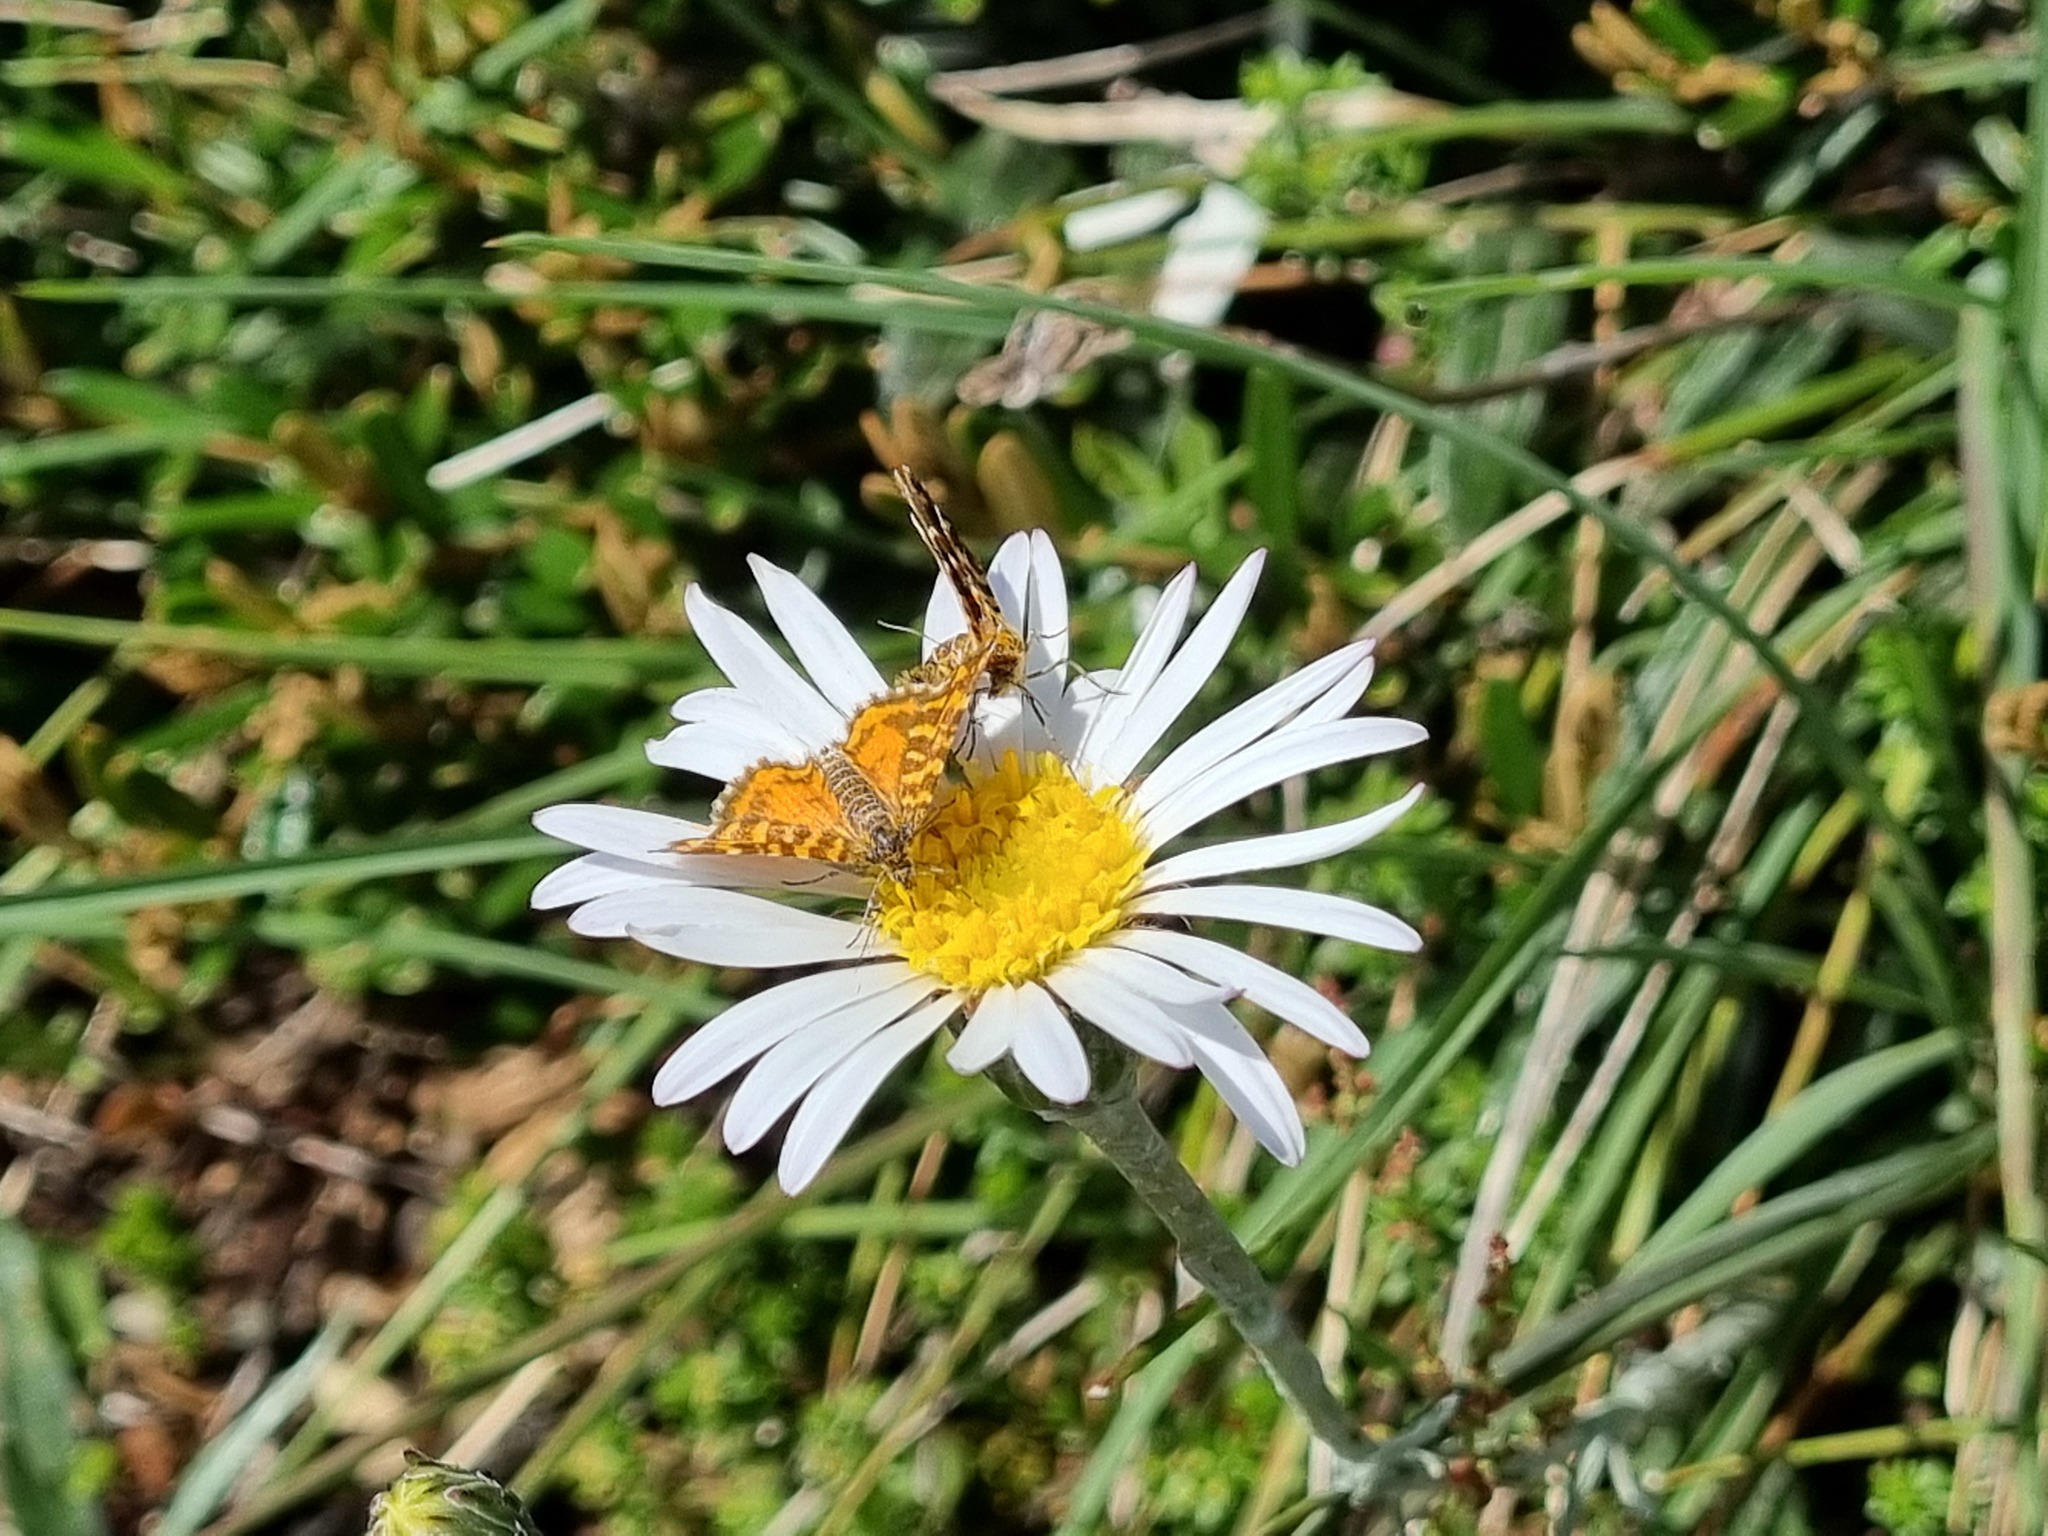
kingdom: Animalia
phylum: Arthropoda
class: Insecta
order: Lepidoptera
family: Geometridae
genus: Chrysolarentia
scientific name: Chrysolarentia chrysocyma
